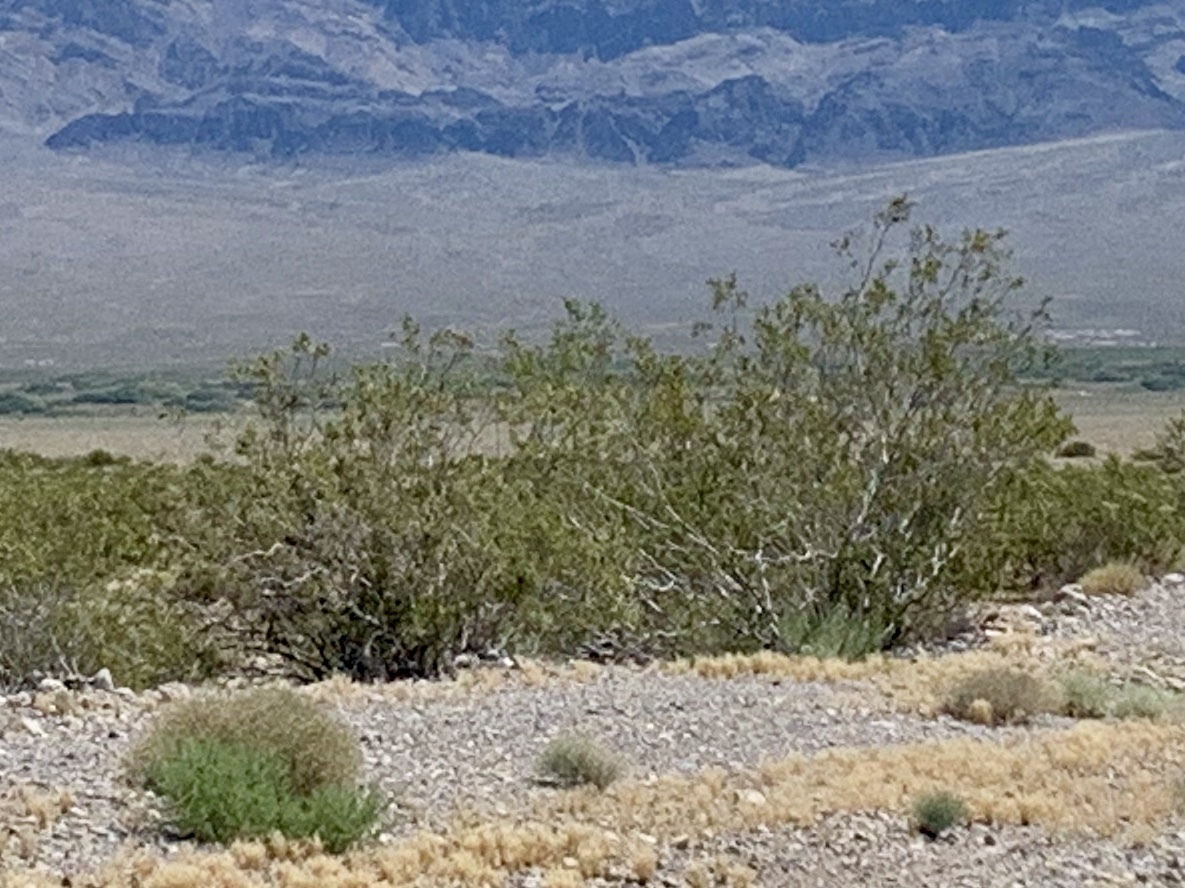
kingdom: Plantae
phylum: Tracheophyta
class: Magnoliopsida
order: Zygophyllales
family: Zygophyllaceae
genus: Larrea
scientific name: Larrea tridentata
